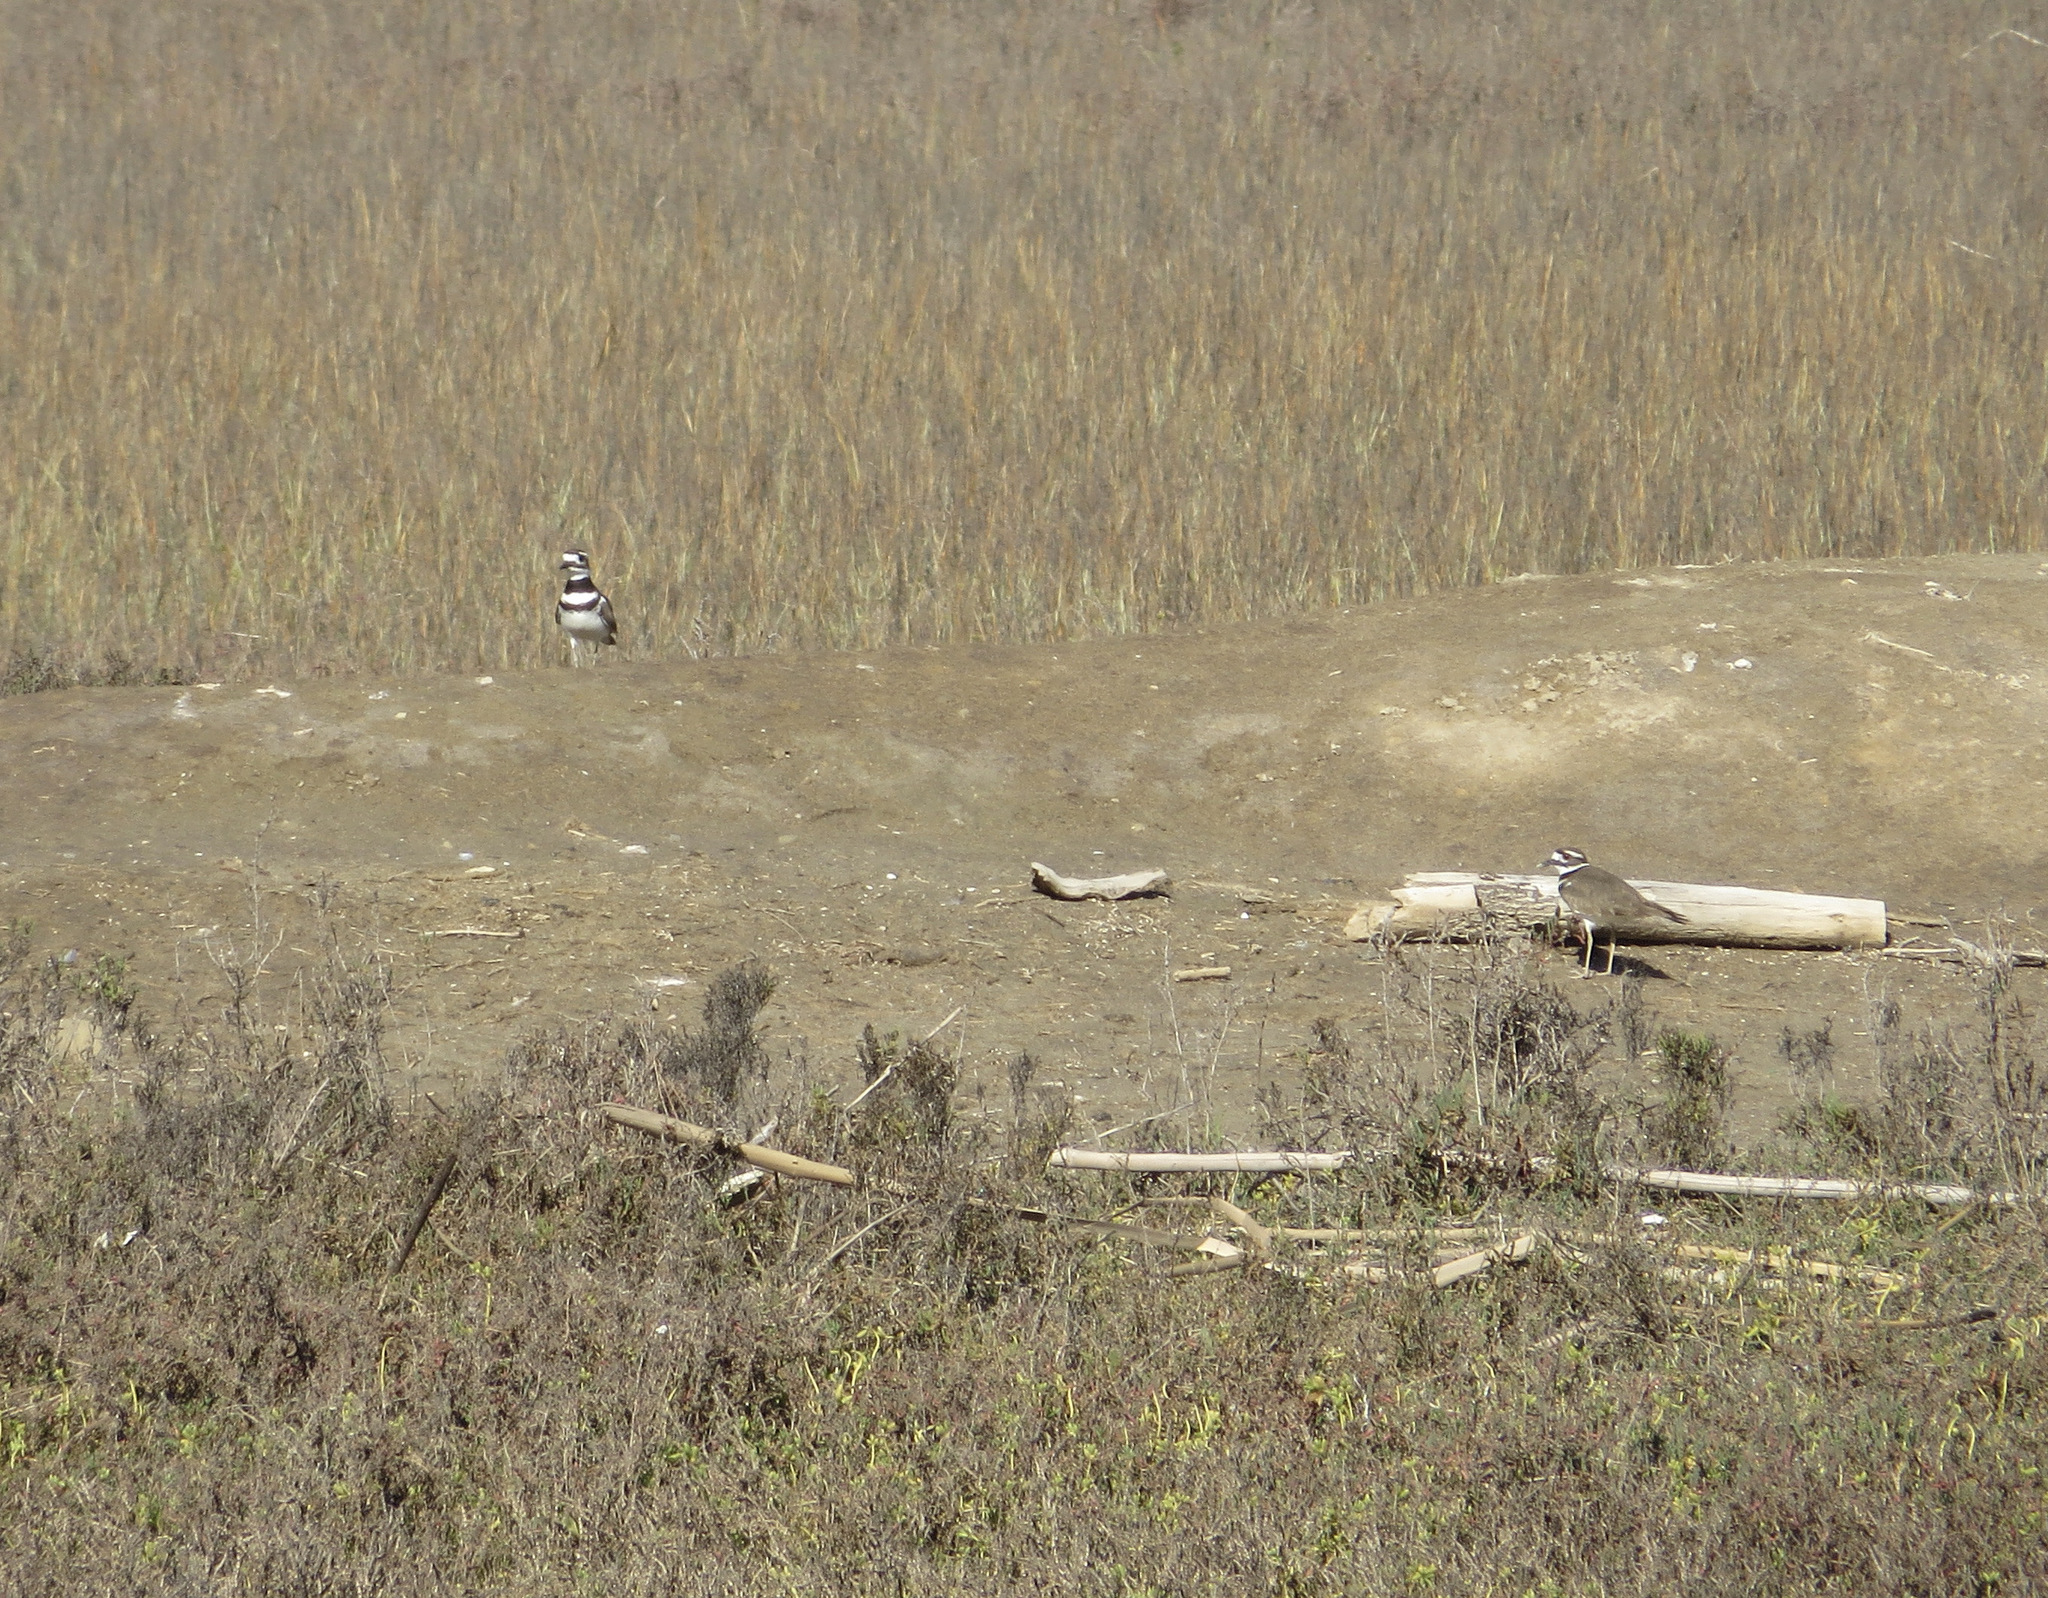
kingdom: Animalia
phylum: Chordata
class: Aves
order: Charadriiformes
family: Charadriidae
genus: Charadrius
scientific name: Charadrius vociferus
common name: Killdeer
